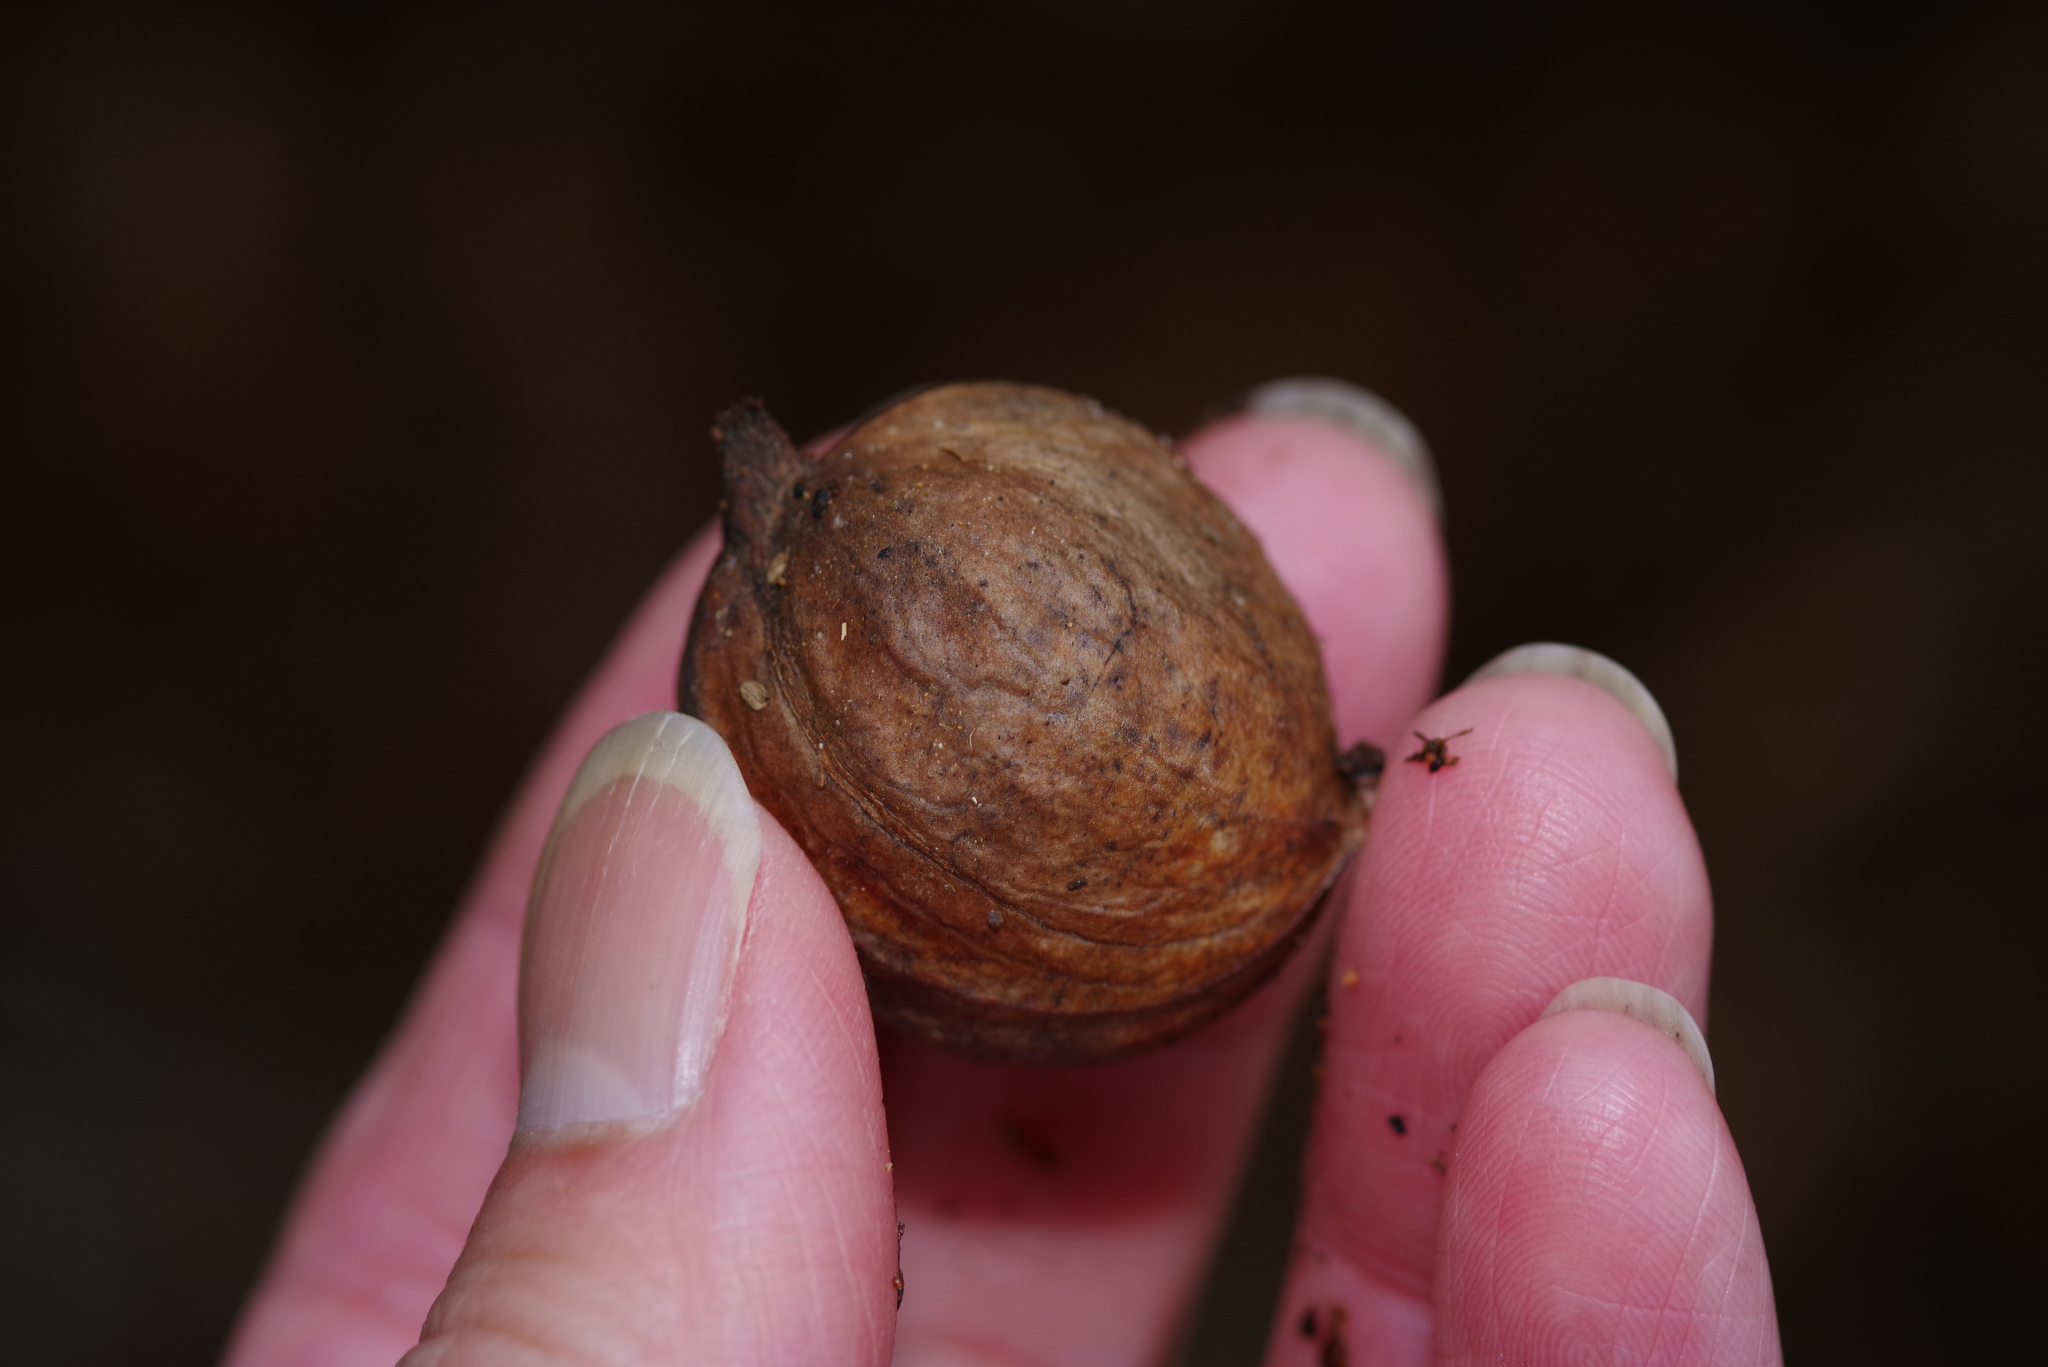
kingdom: Plantae
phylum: Tracheophyta
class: Magnoliopsida
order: Fagales
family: Juglandaceae
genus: Carya
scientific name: Carya texana
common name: Black hickory
